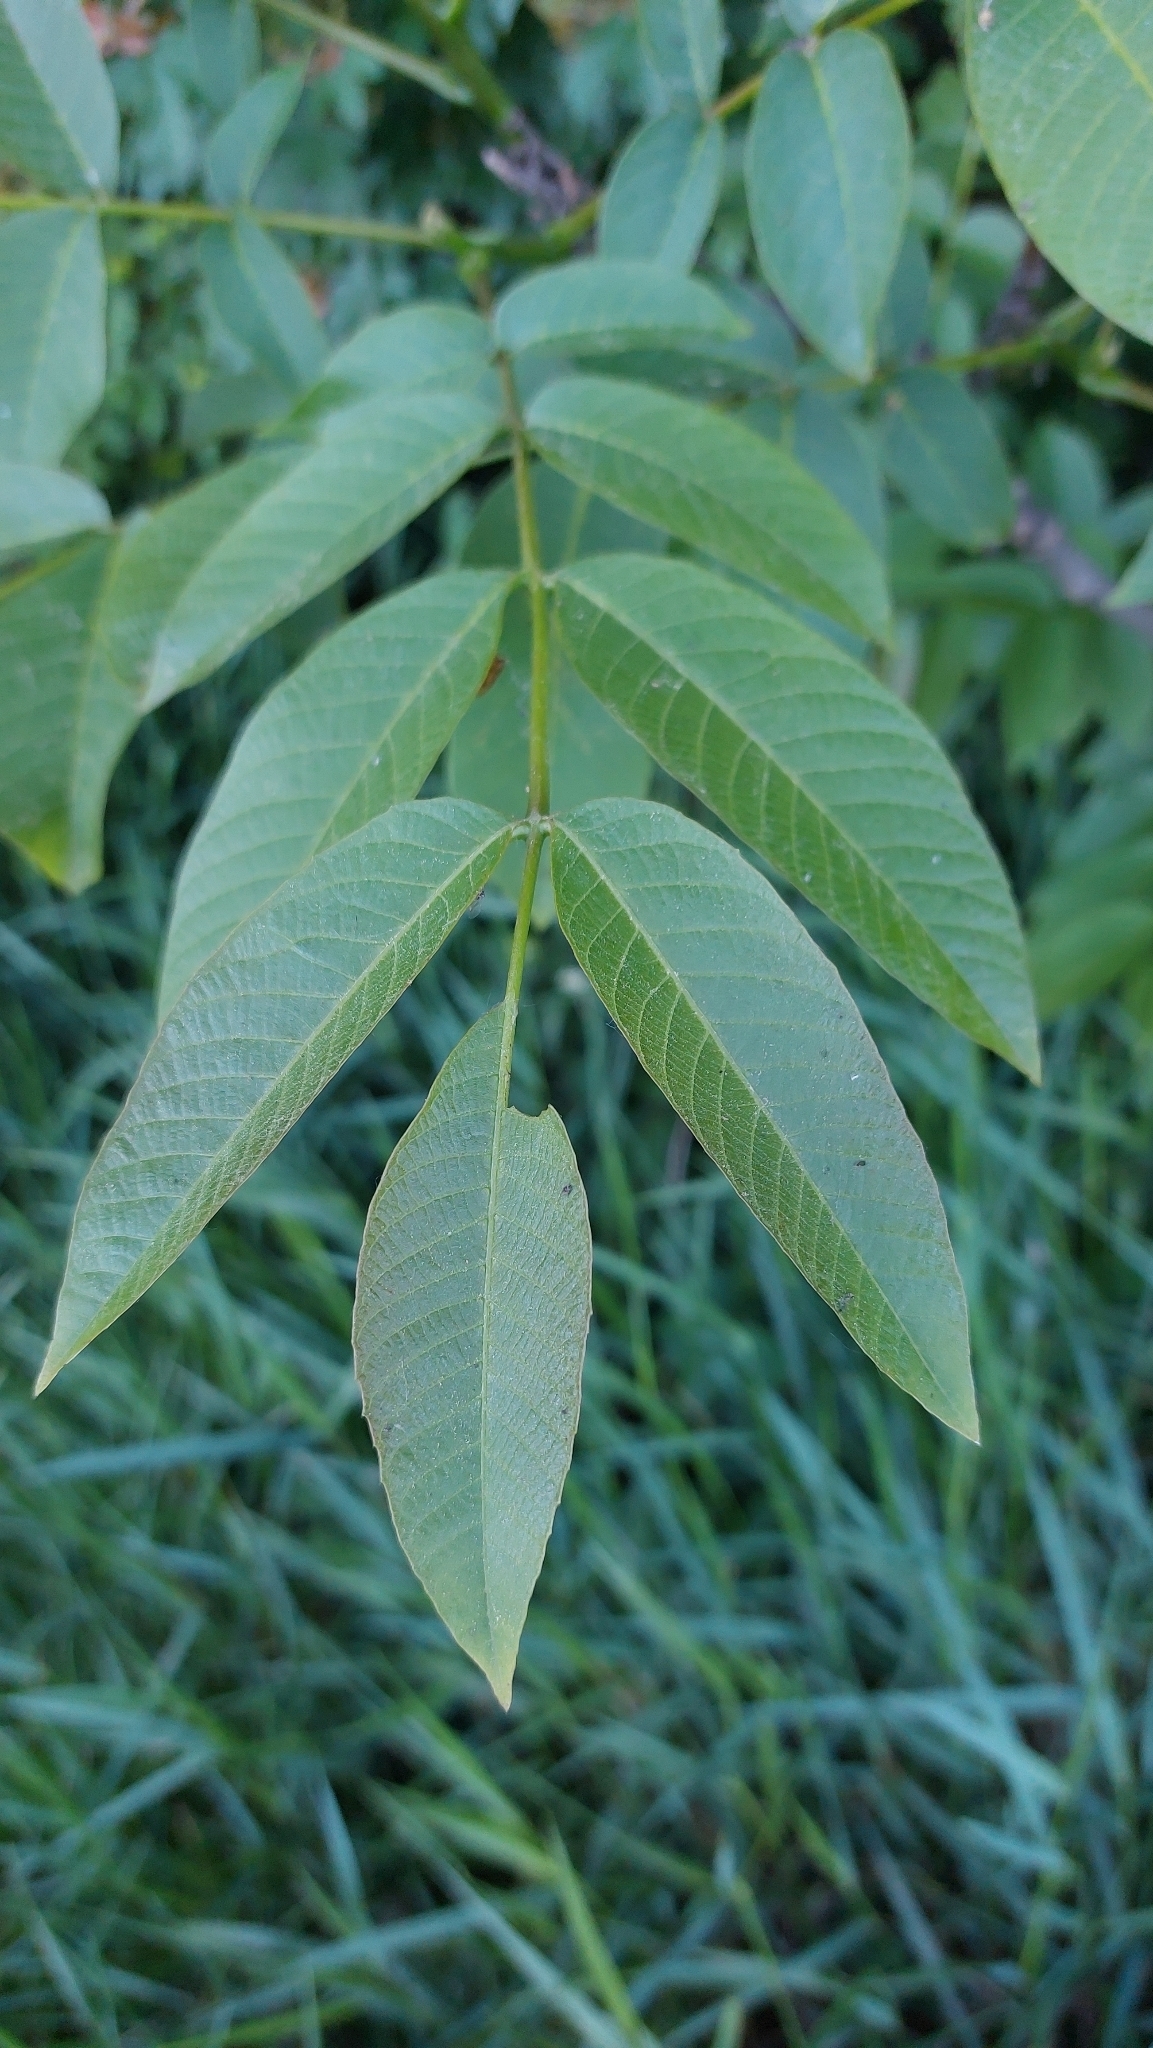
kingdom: Plantae
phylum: Tracheophyta
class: Magnoliopsida
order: Fagales
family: Juglandaceae
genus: Juglans
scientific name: Juglans regia
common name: Walnut
